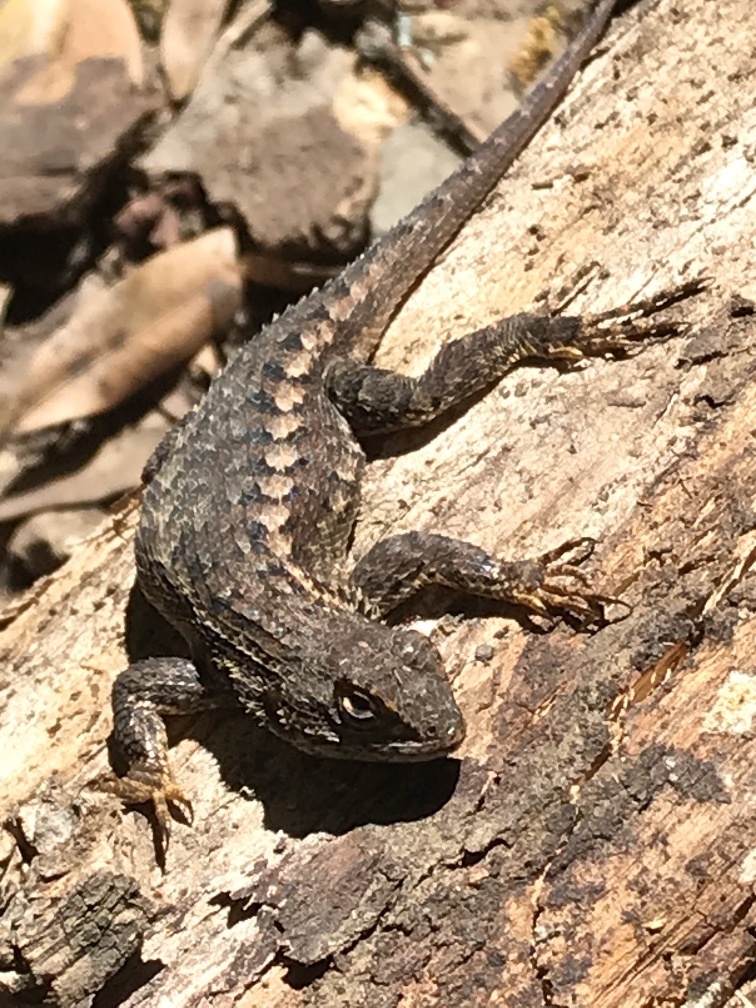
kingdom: Animalia
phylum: Chordata
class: Squamata
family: Phrynosomatidae
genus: Sceloporus
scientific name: Sceloporus occidentalis
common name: Western fence lizard
